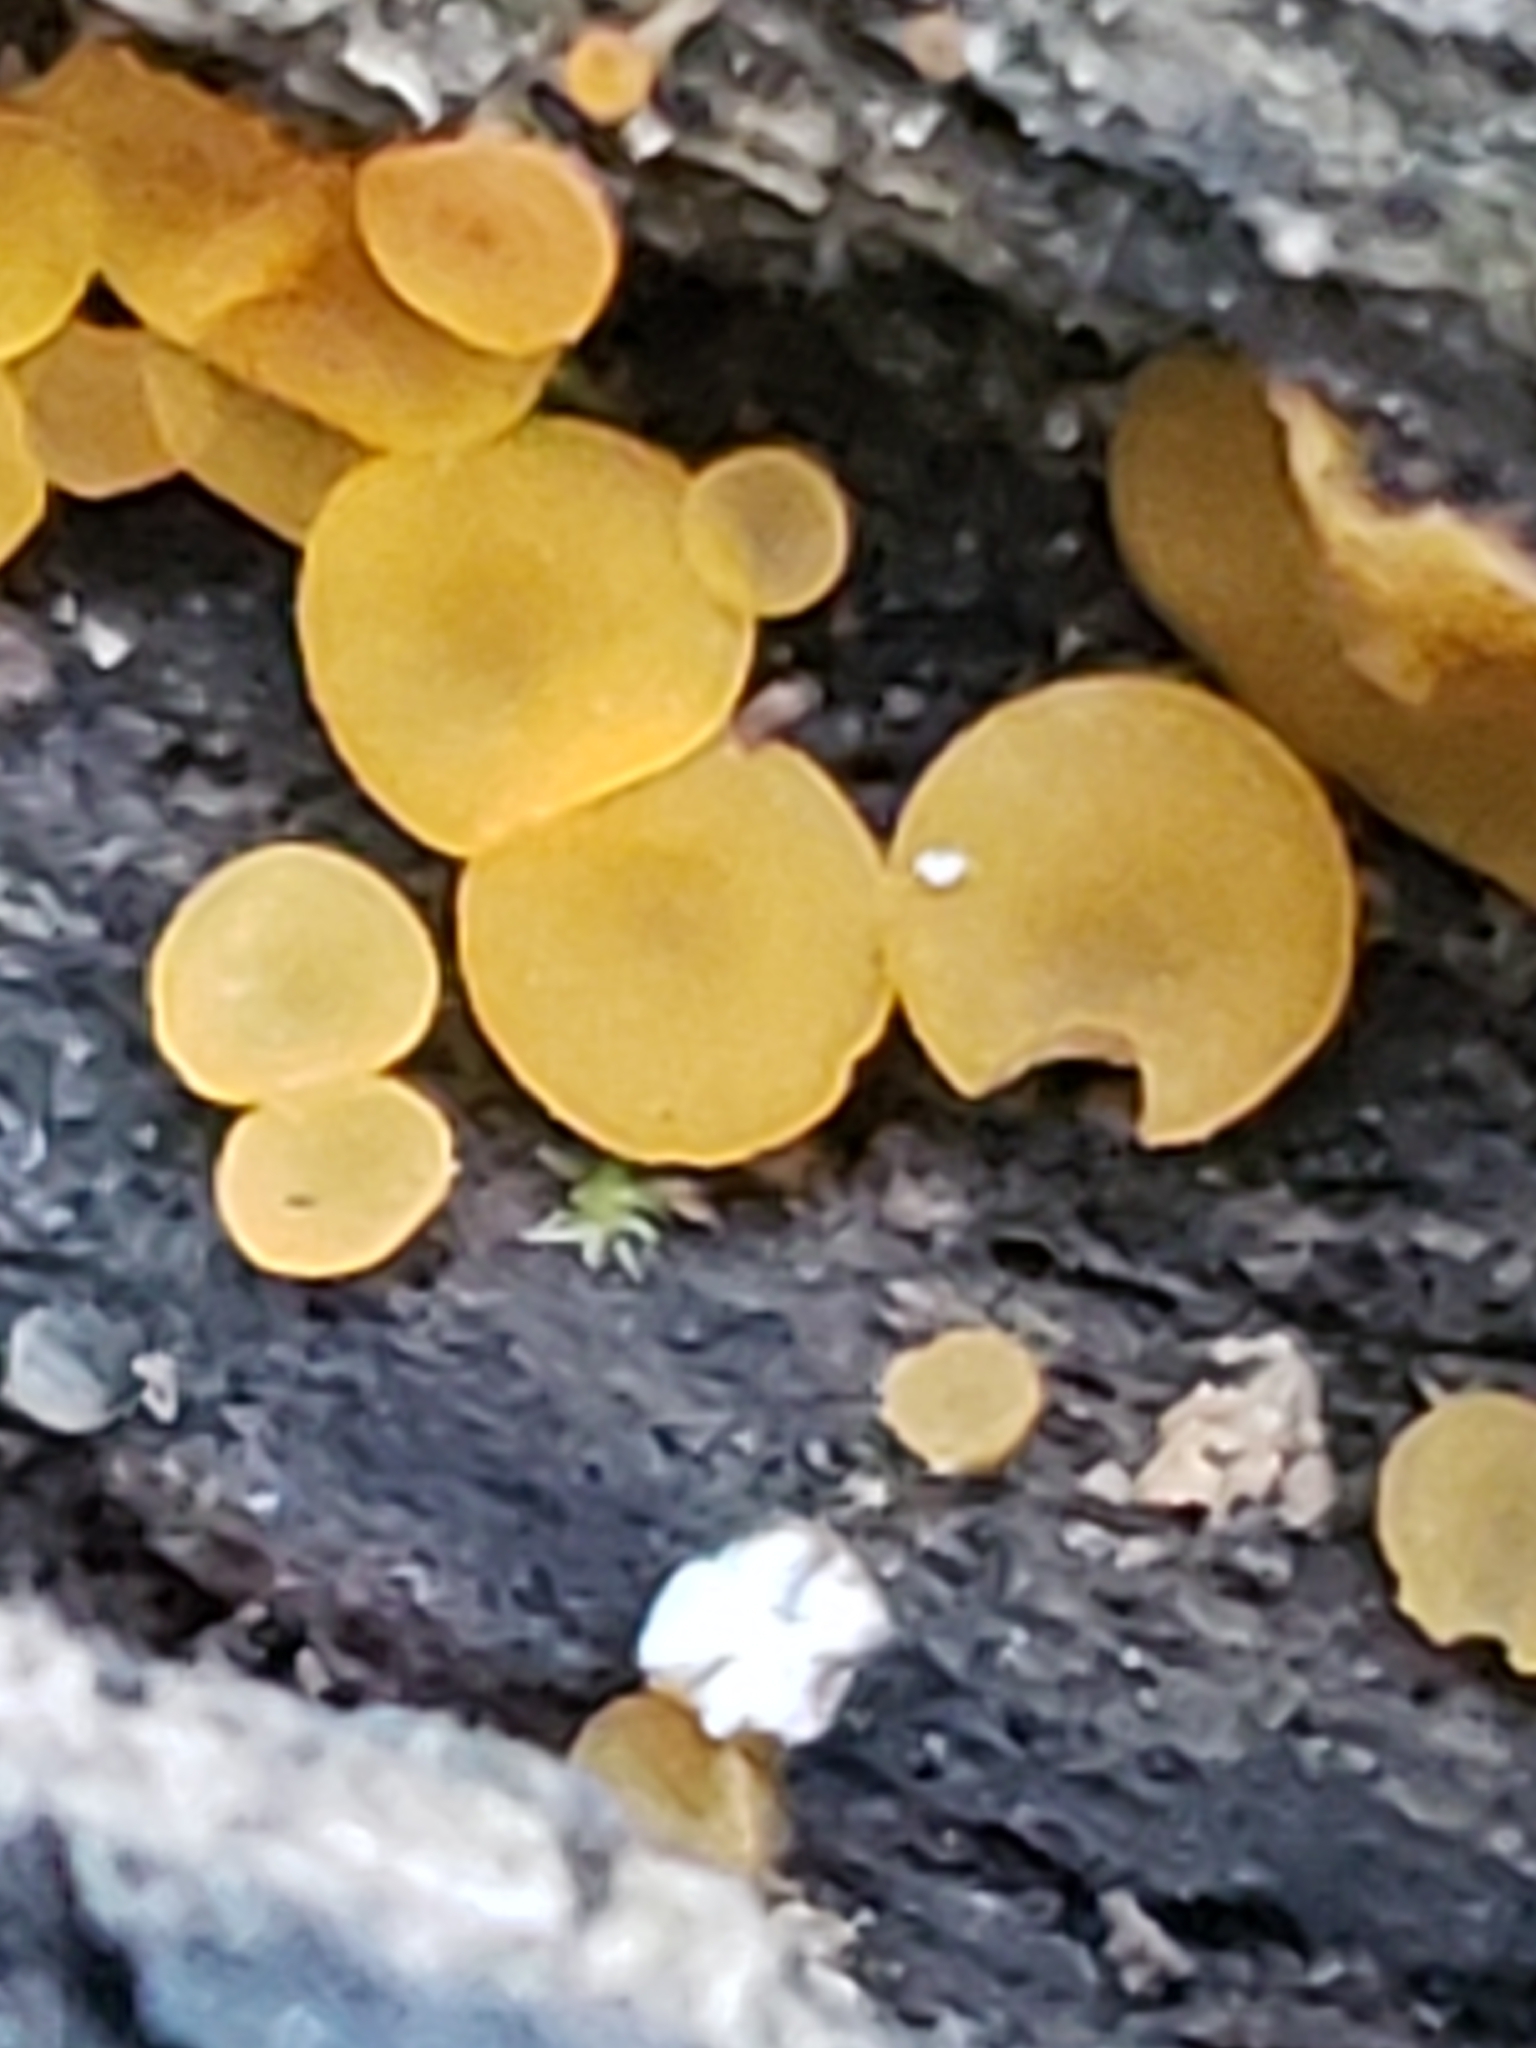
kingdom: Fungi
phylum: Ascomycota
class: Orbiliomycetes
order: Orbiliales
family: Orbiliaceae
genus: Orbilia
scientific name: Orbilia
